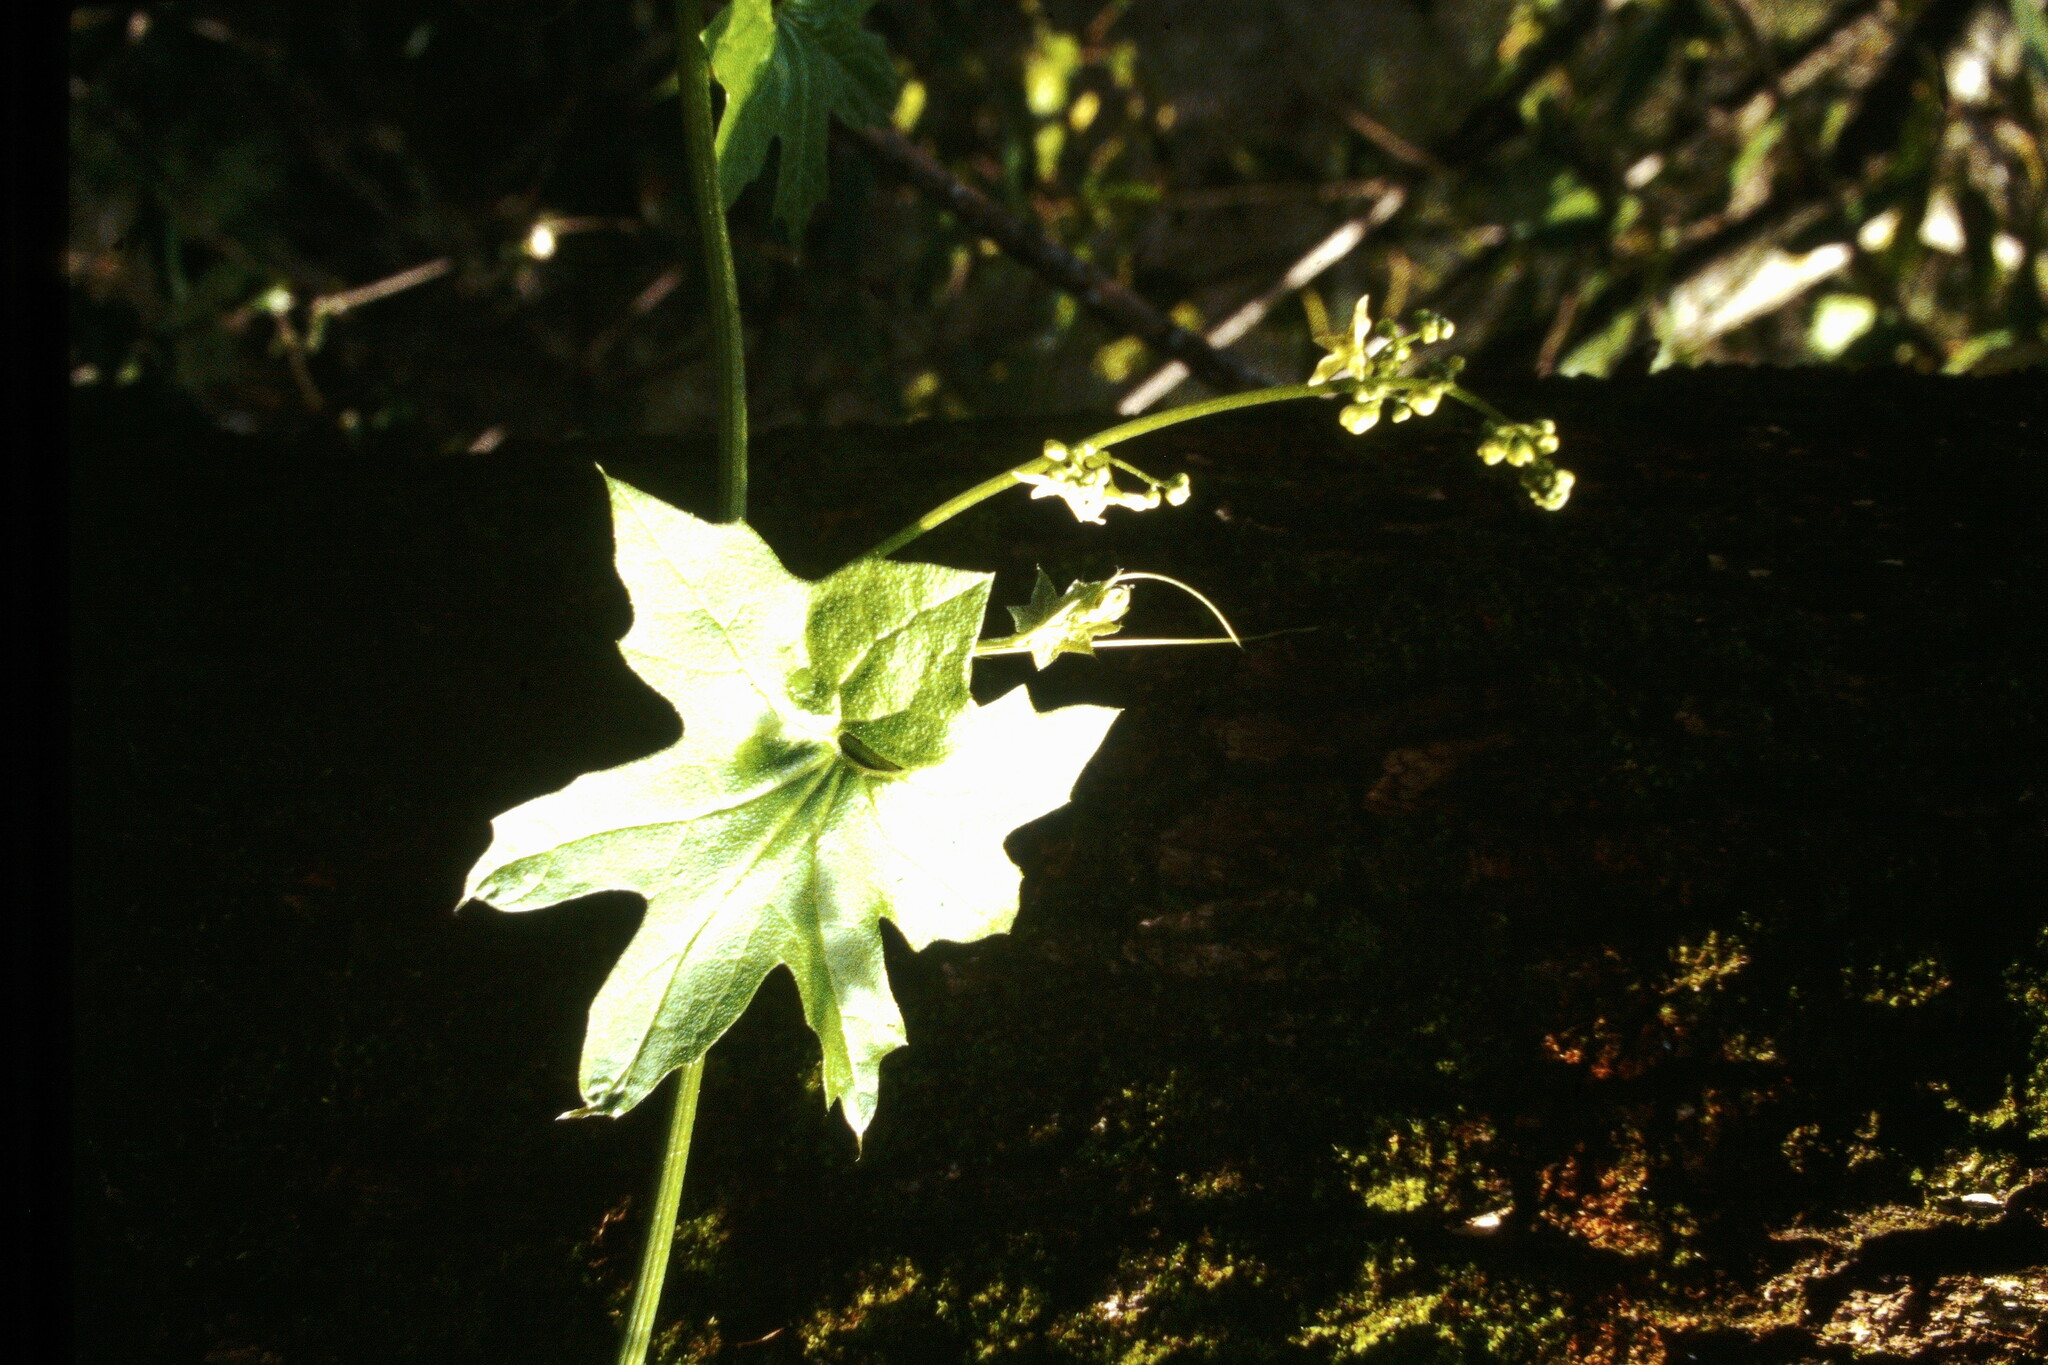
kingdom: Plantae
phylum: Tracheophyta
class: Magnoliopsida
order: Cucurbitales
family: Cucurbitaceae
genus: Marah
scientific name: Marah fabacea
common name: California manroot
